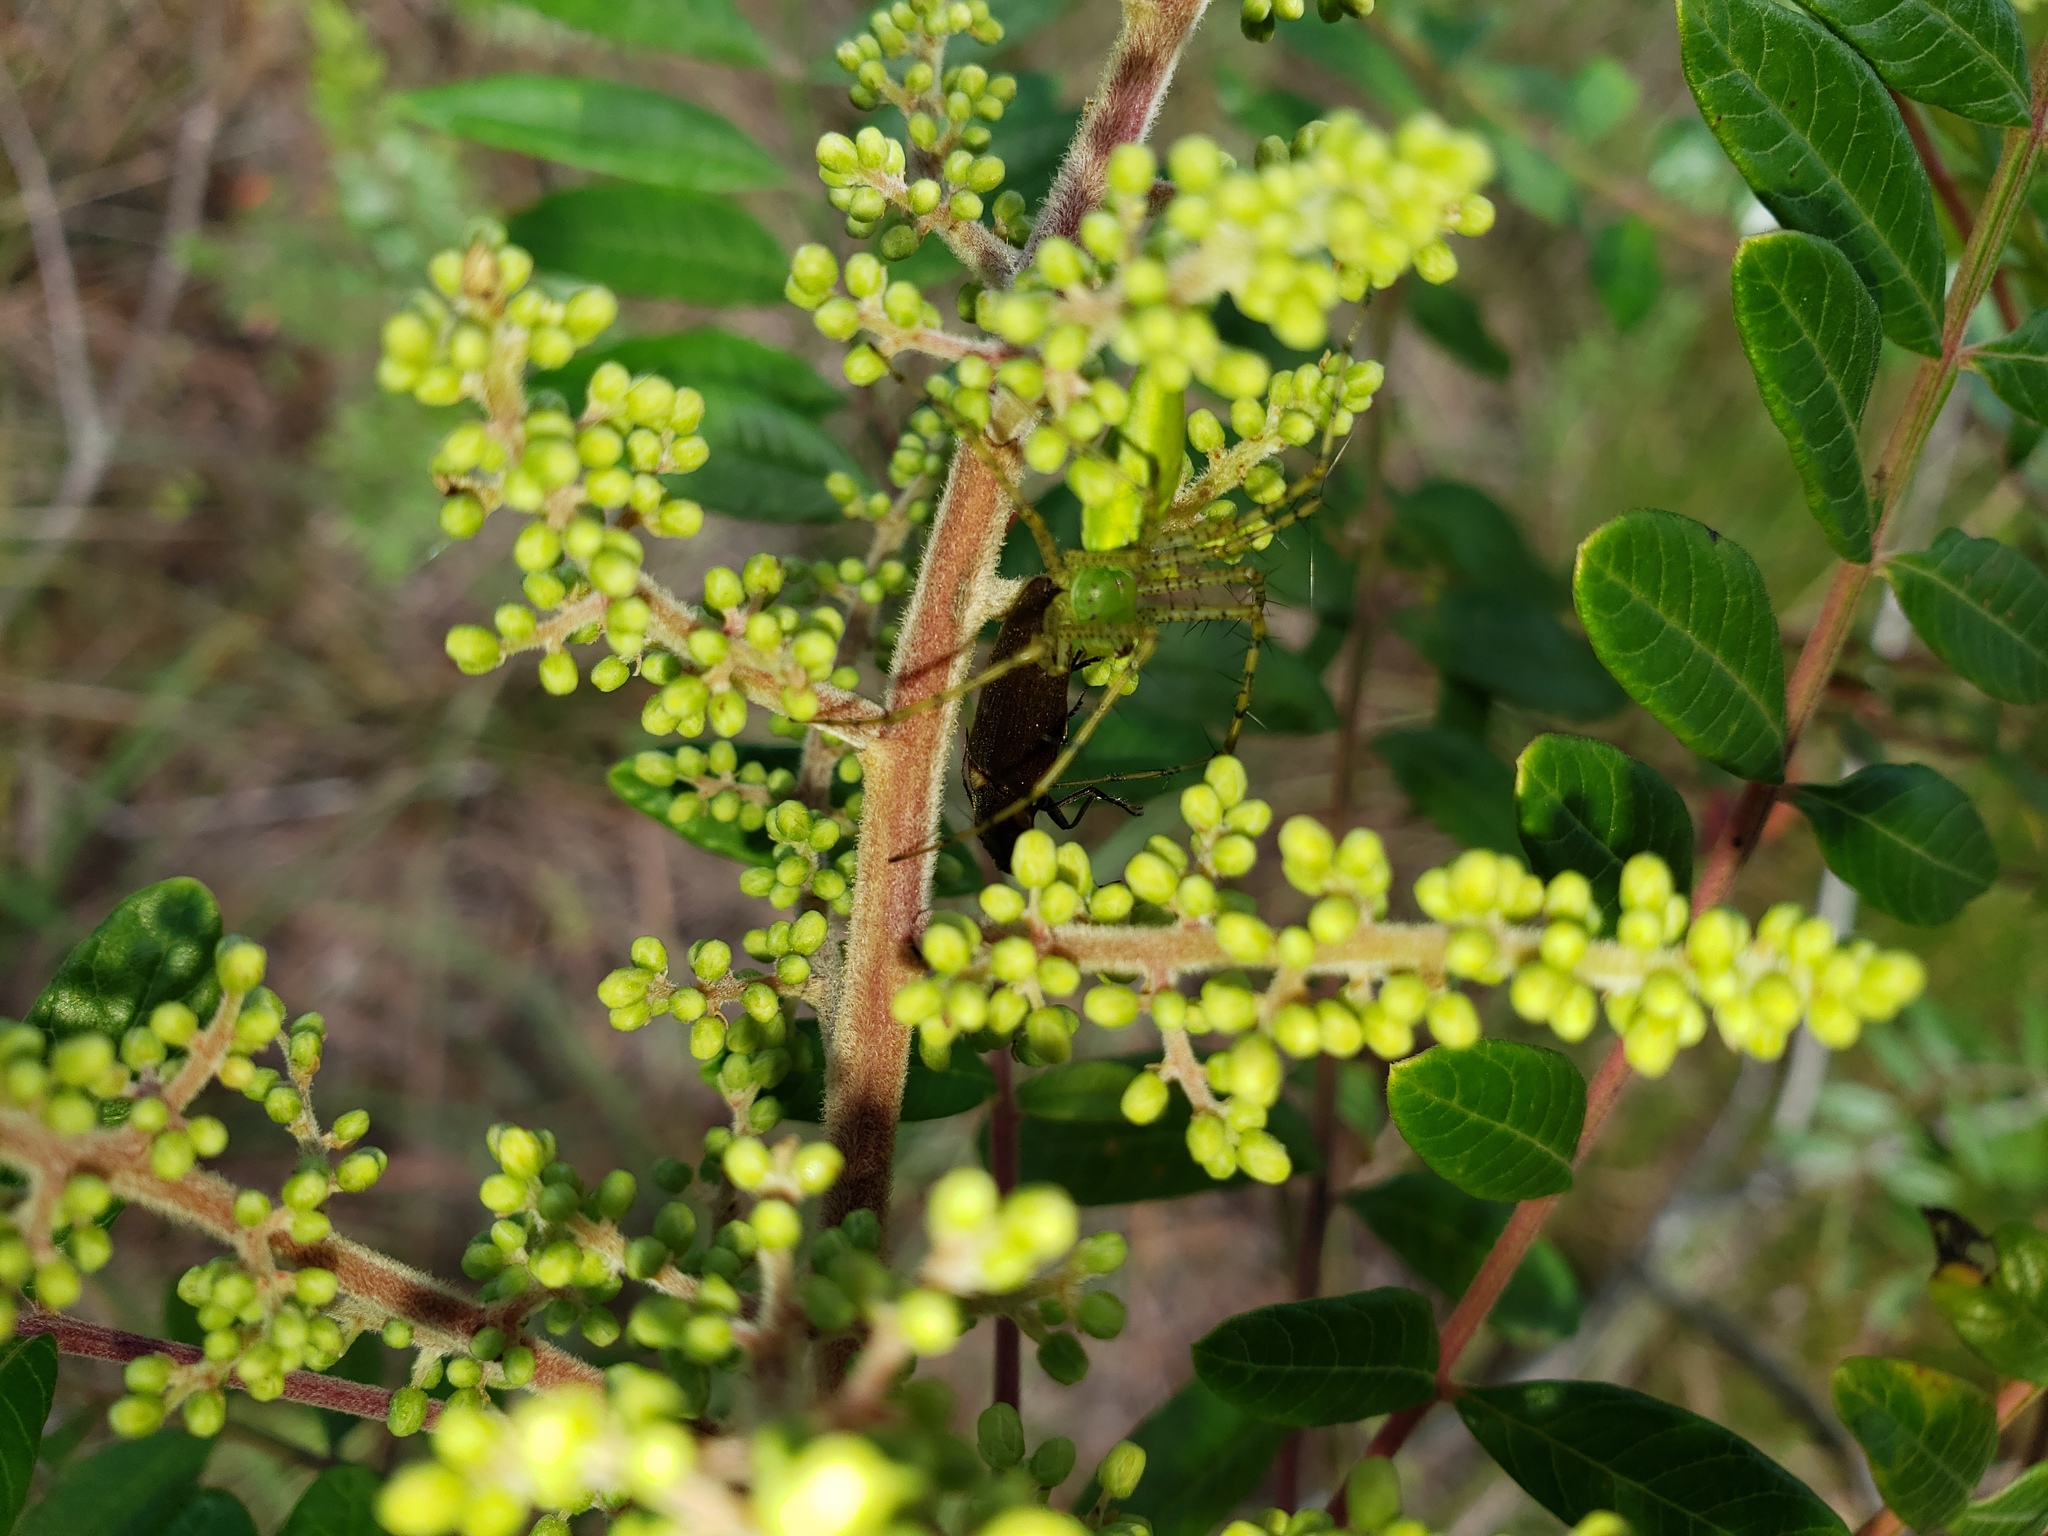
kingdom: Animalia
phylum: Arthropoda
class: Arachnida
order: Araneae
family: Oxyopidae
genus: Peucetia
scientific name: Peucetia viridans
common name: Lynx spiders
